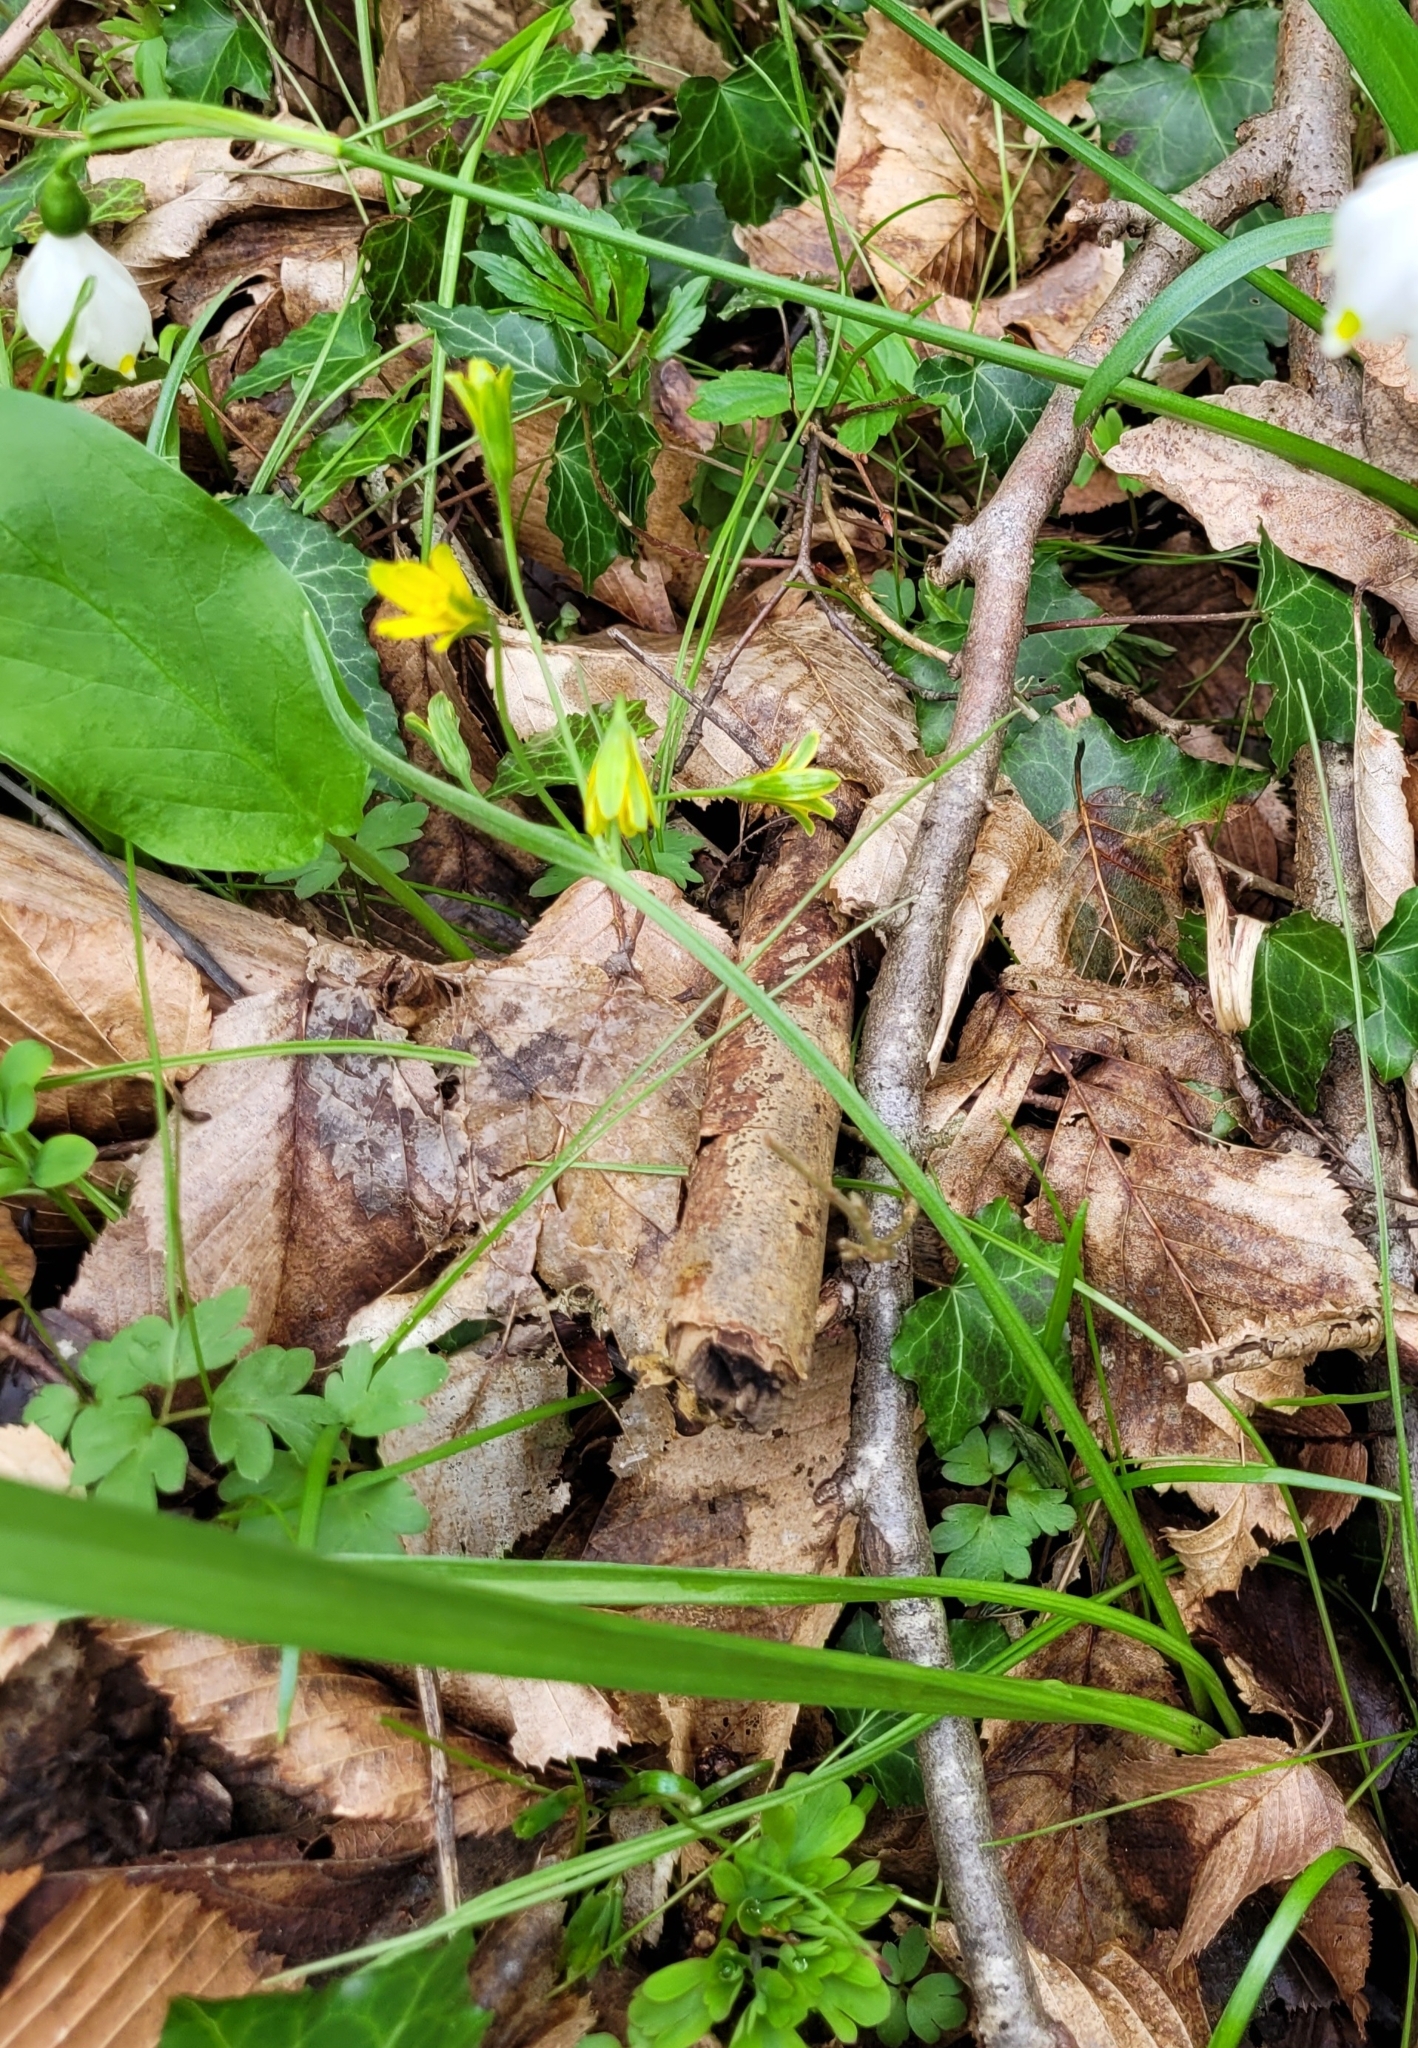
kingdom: Plantae
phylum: Tracheophyta
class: Liliopsida
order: Liliales
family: Liliaceae
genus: Gagea
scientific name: Gagea lutea
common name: Yellow star-of-bethlehem
